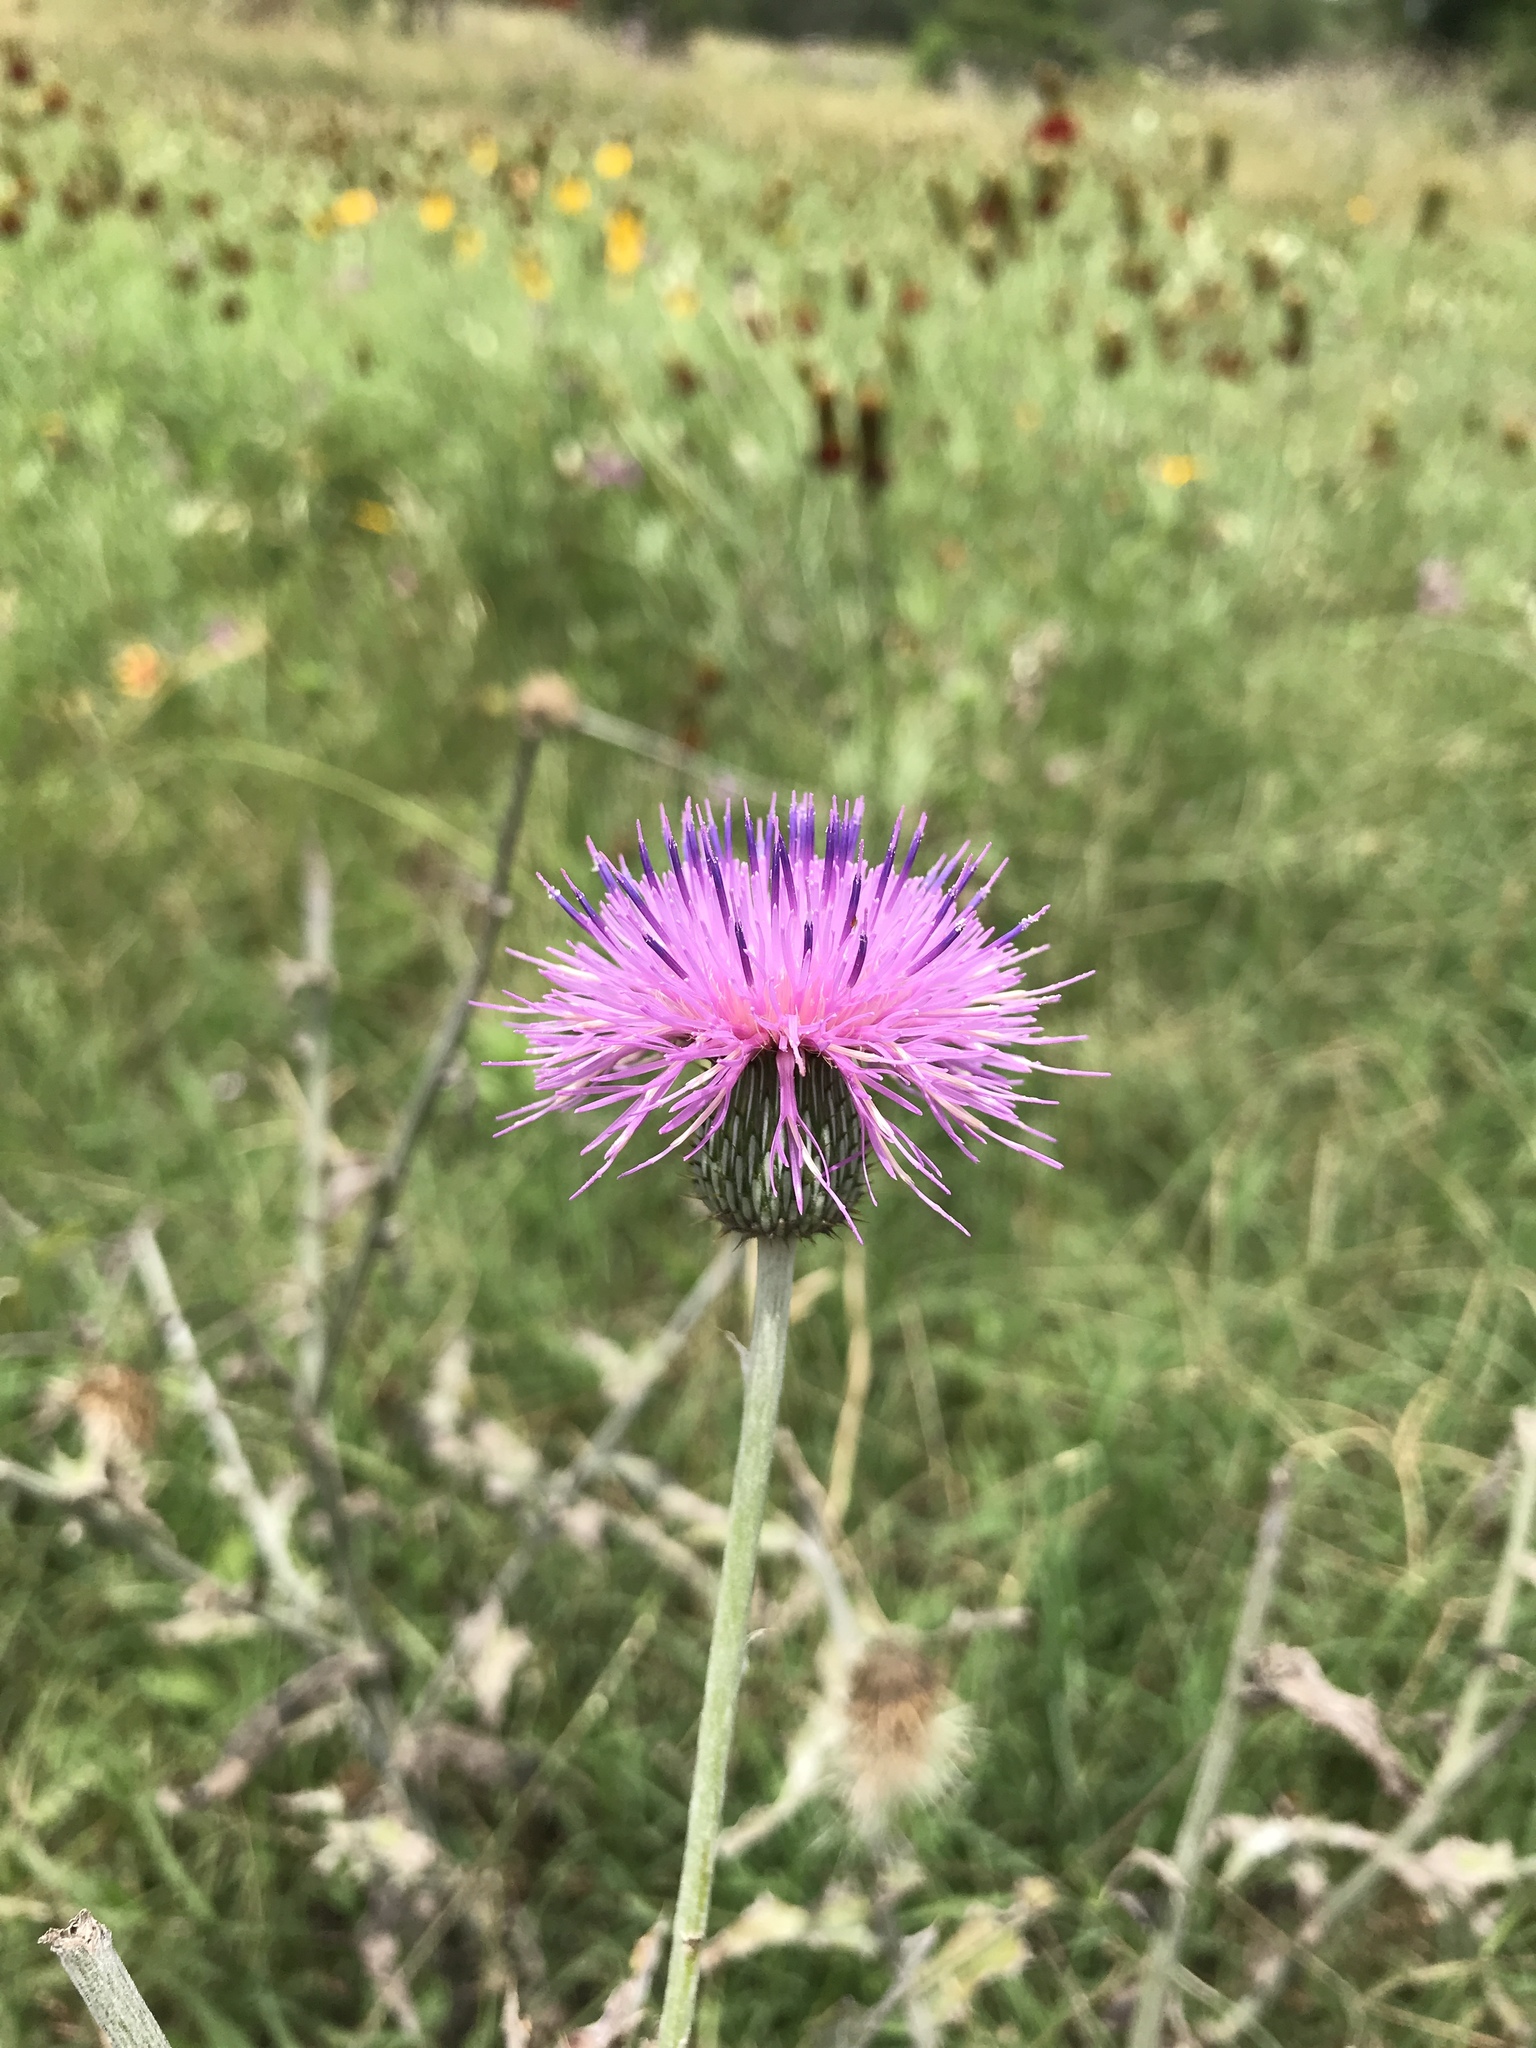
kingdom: Plantae
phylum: Tracheophyta
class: Magnoliopsida
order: Asterales
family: Asteraceae
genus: Cirsium
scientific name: Cirsium texanum
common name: Texas purple thistle
